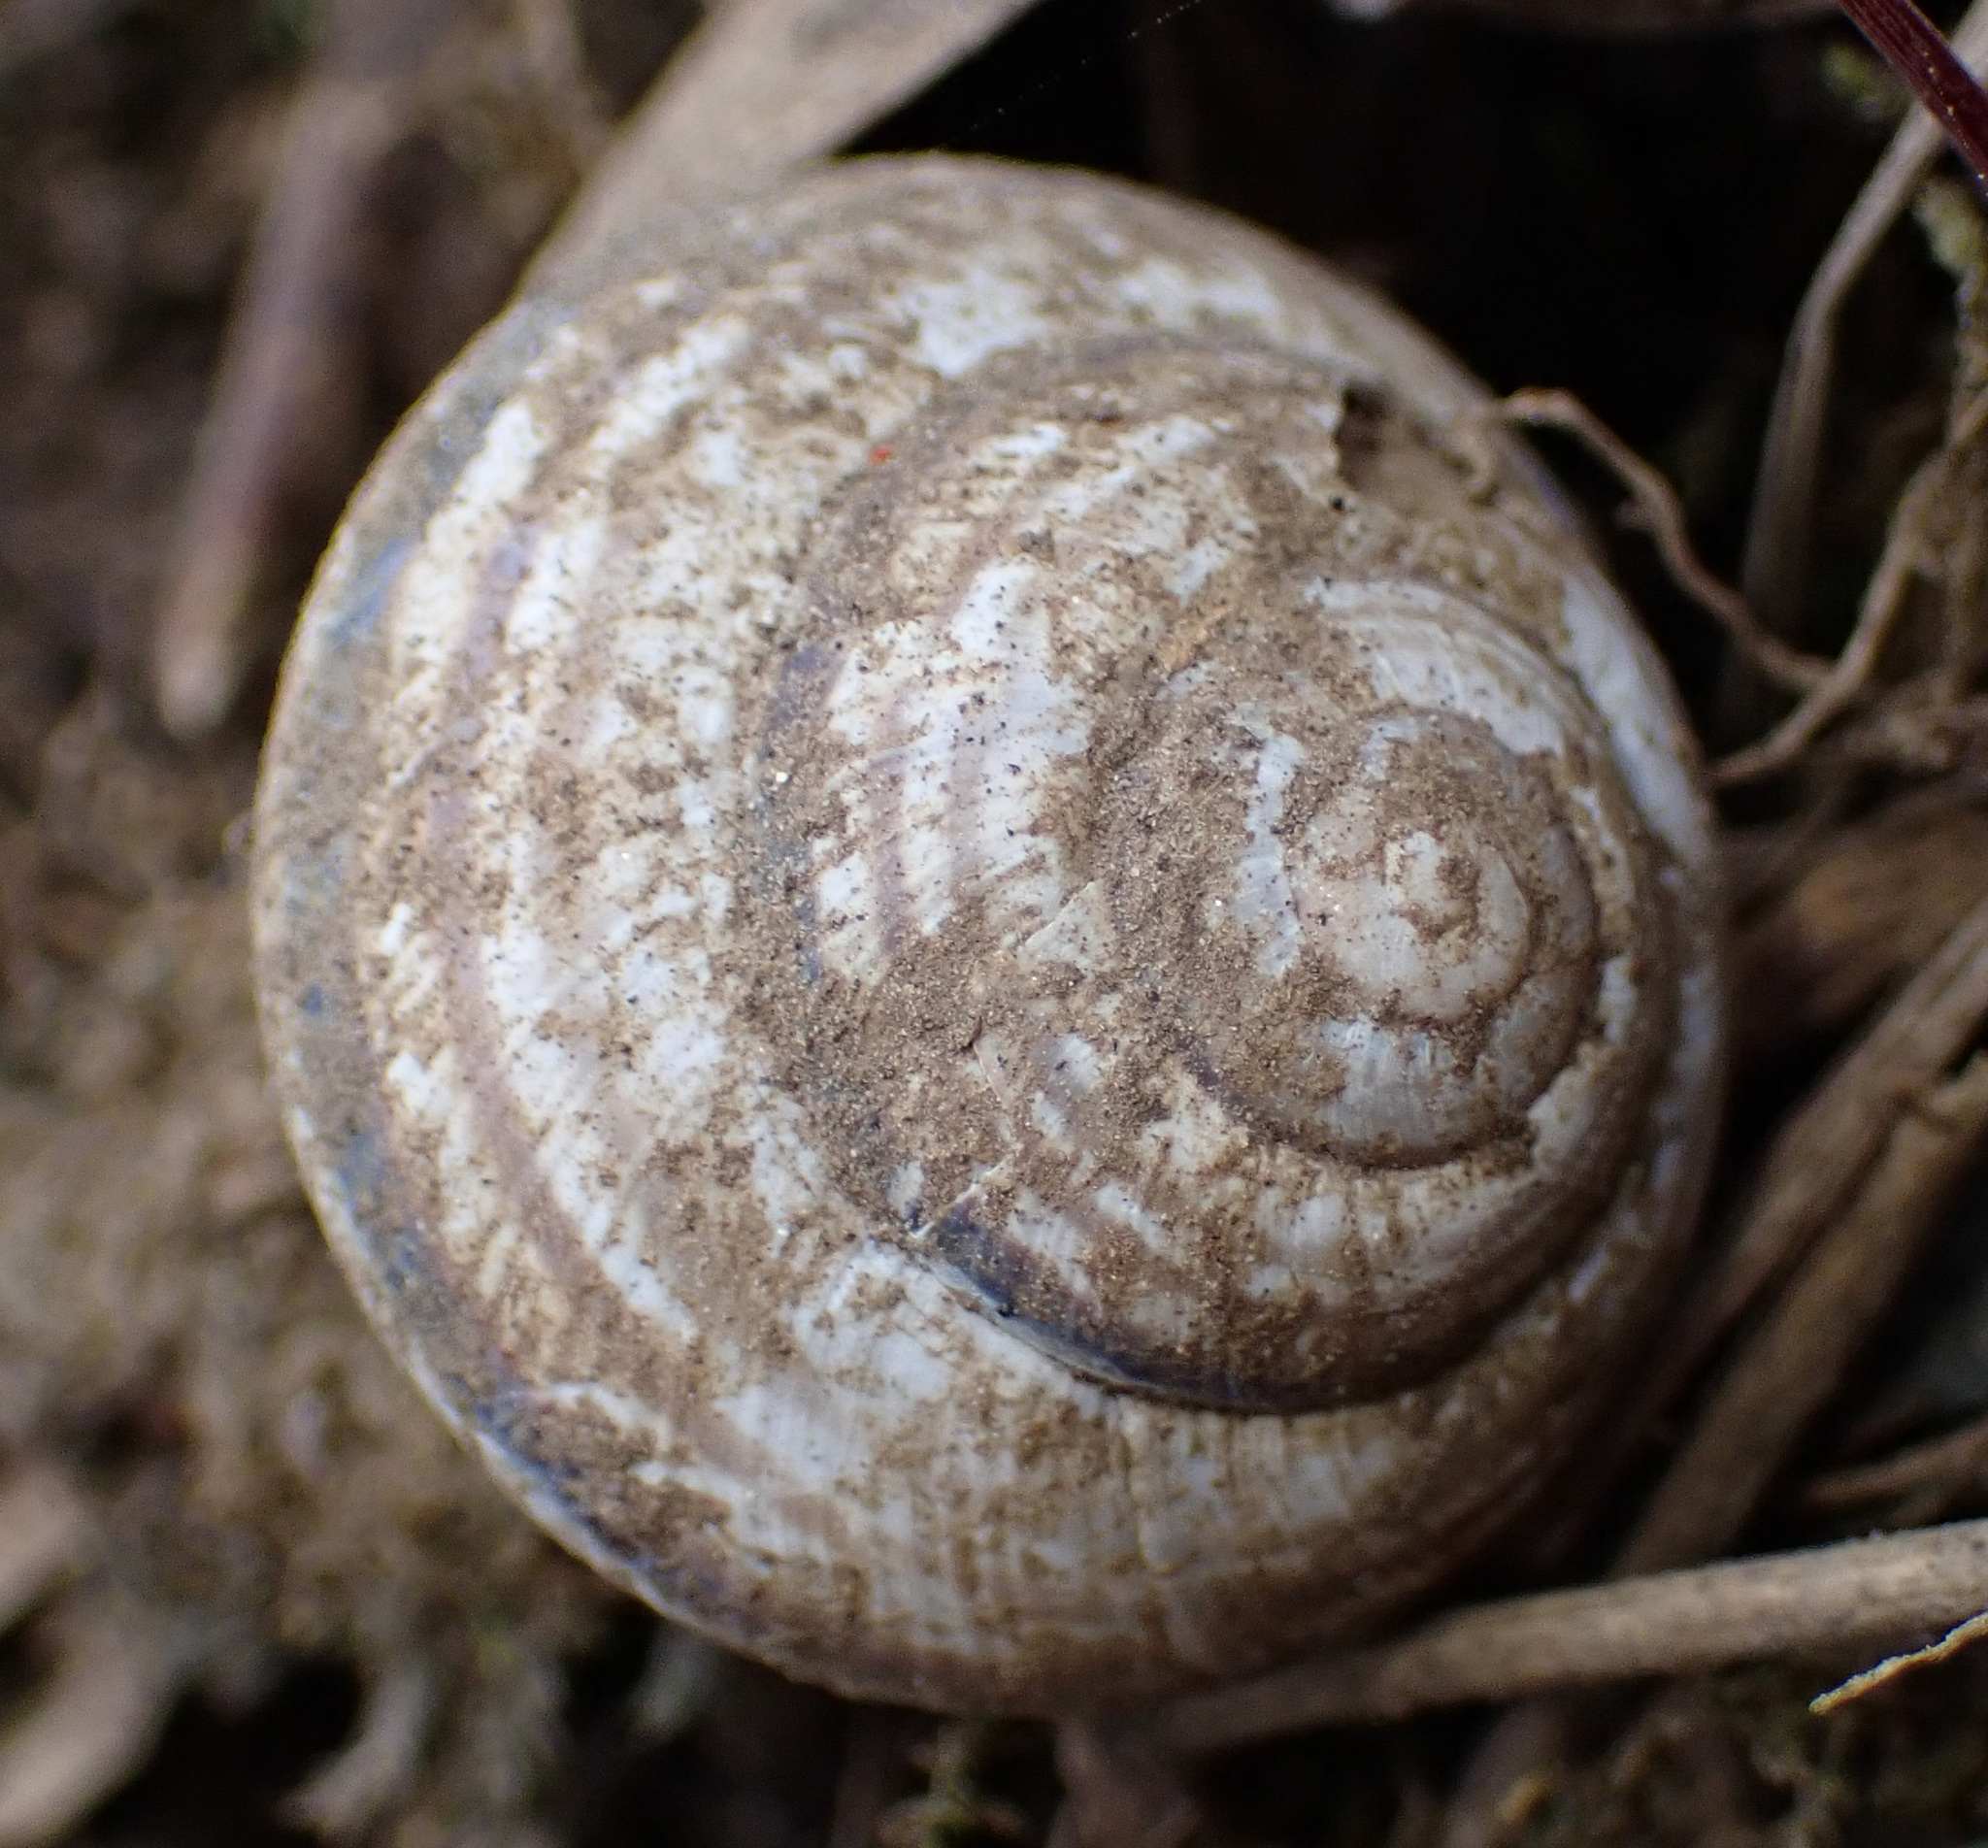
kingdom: Animalia
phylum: Mollusca
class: Gastropoda
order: Stylommatophora
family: Helicidae
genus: Caucasotachea
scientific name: Caucasotachea vindobonensis
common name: European helicid land snail
